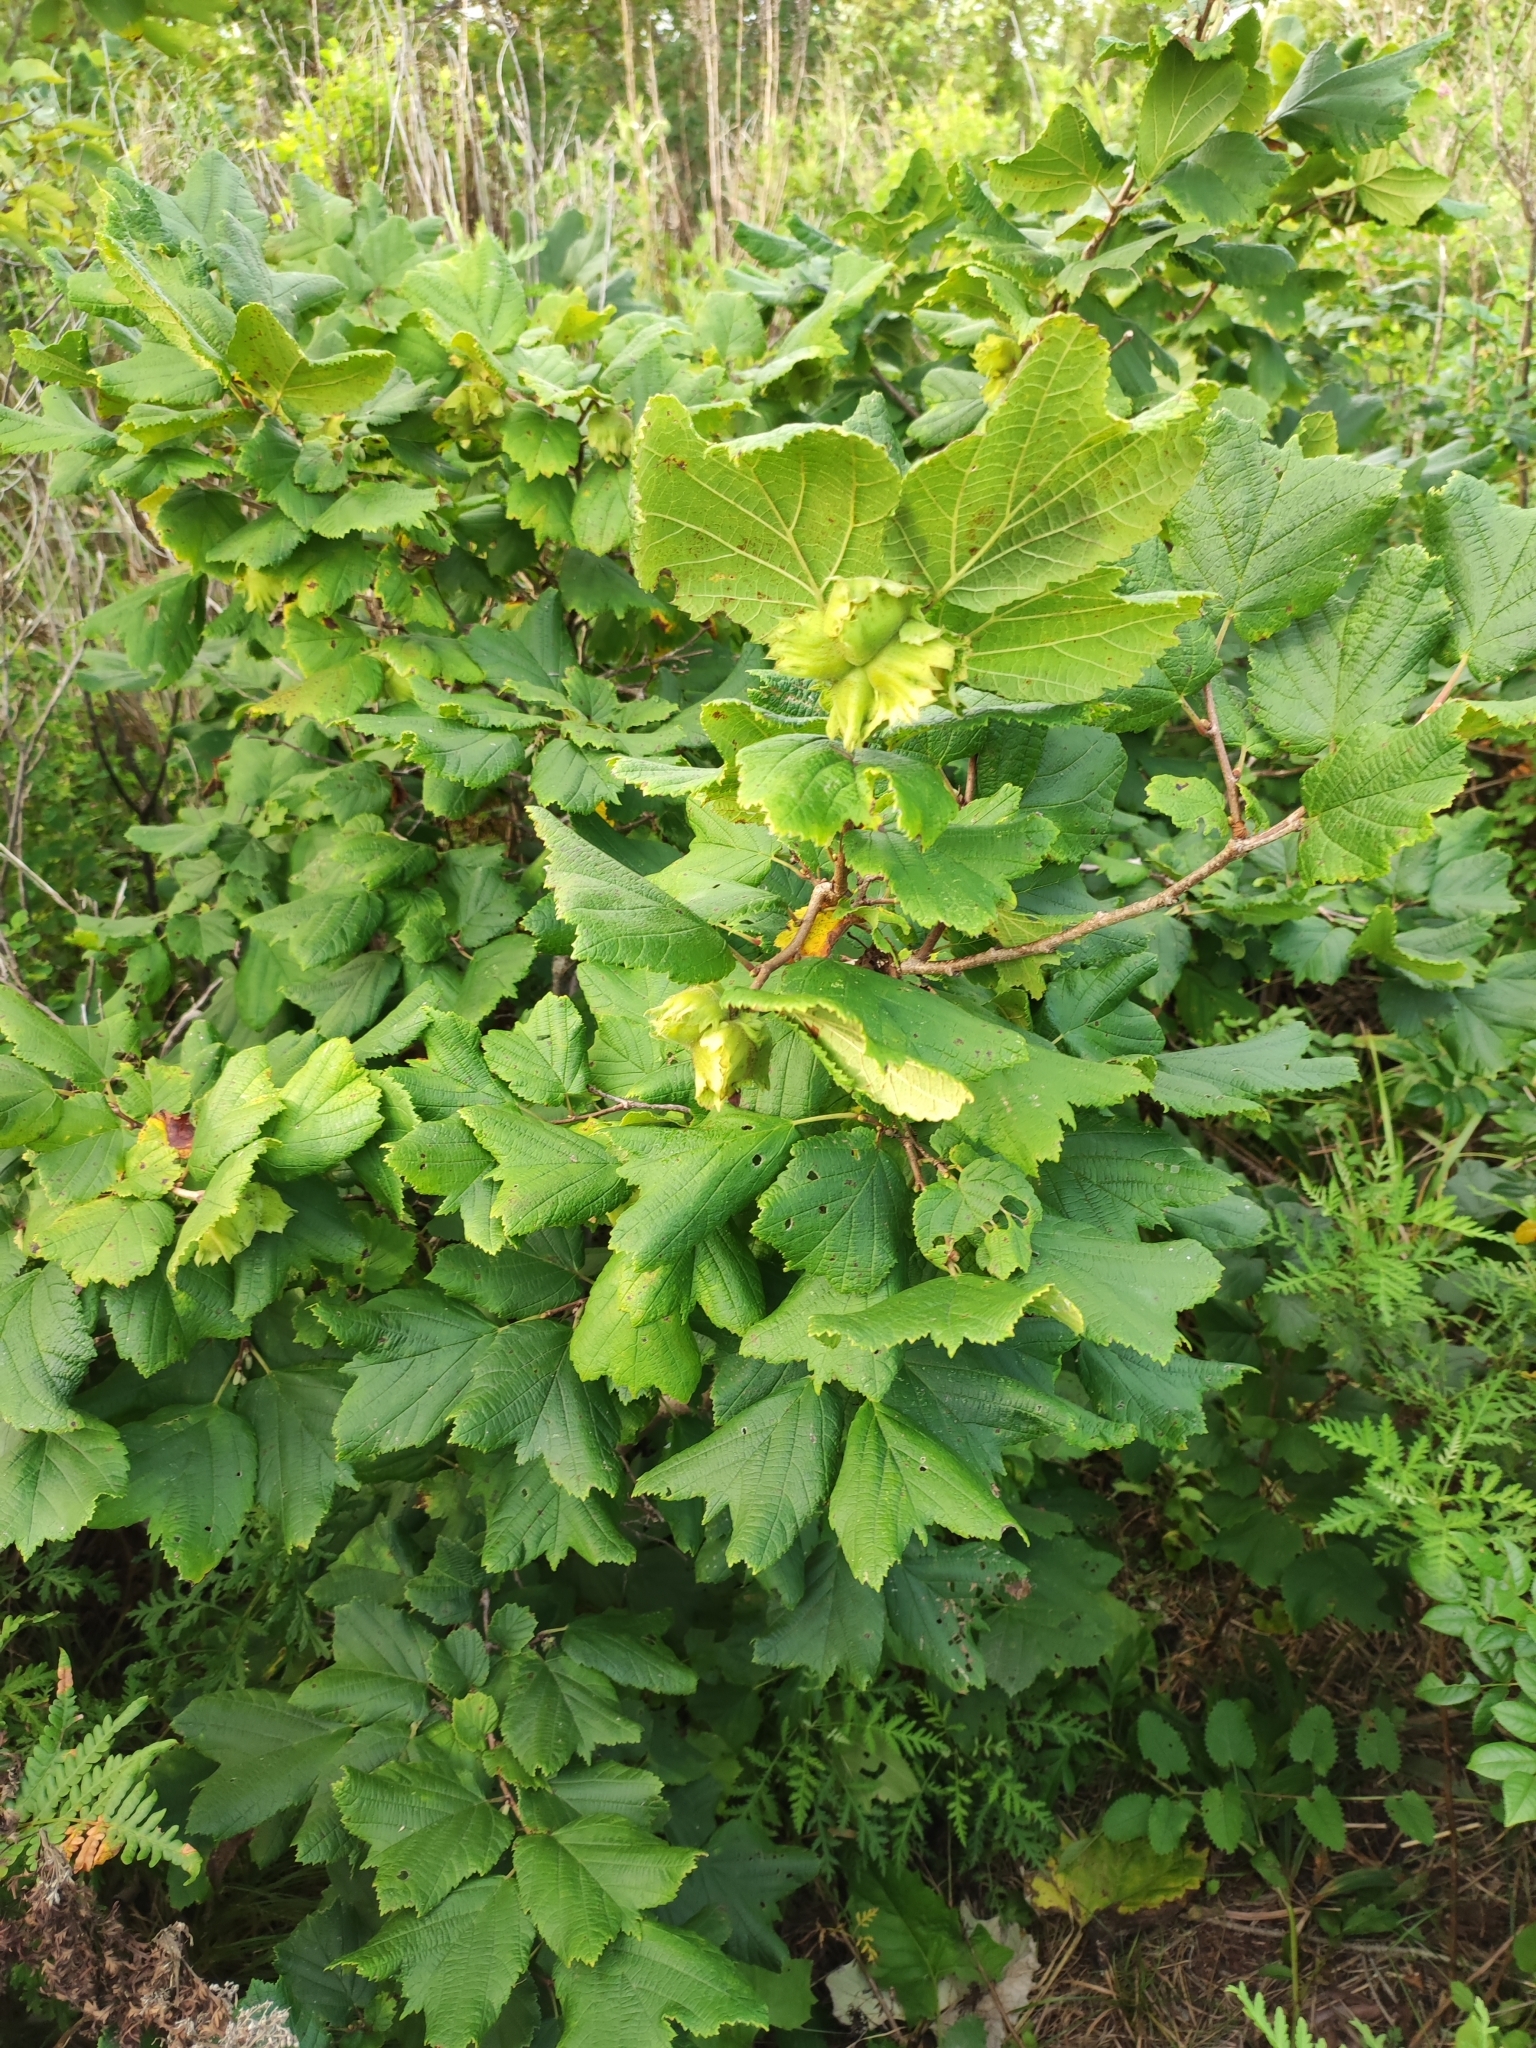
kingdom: Plantae
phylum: Tracheophyta
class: Magnoliopsida
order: Fagales
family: Betulaceae
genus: Corylus
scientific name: Corylus heterophylla
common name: Siberian hazelnut
